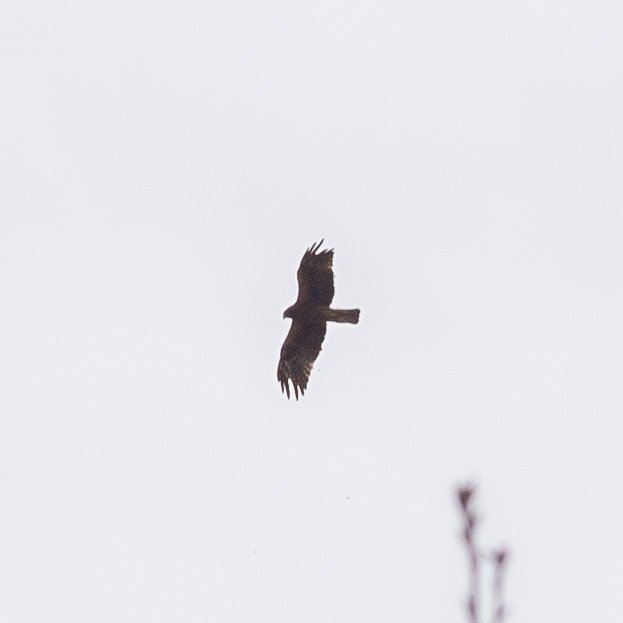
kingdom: Animalia
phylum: Chordata
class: Aves
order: Accipitriformes
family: Accipitridae
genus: Hieraaetus
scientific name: Hieraaetus pennatus
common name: Booted eagle
